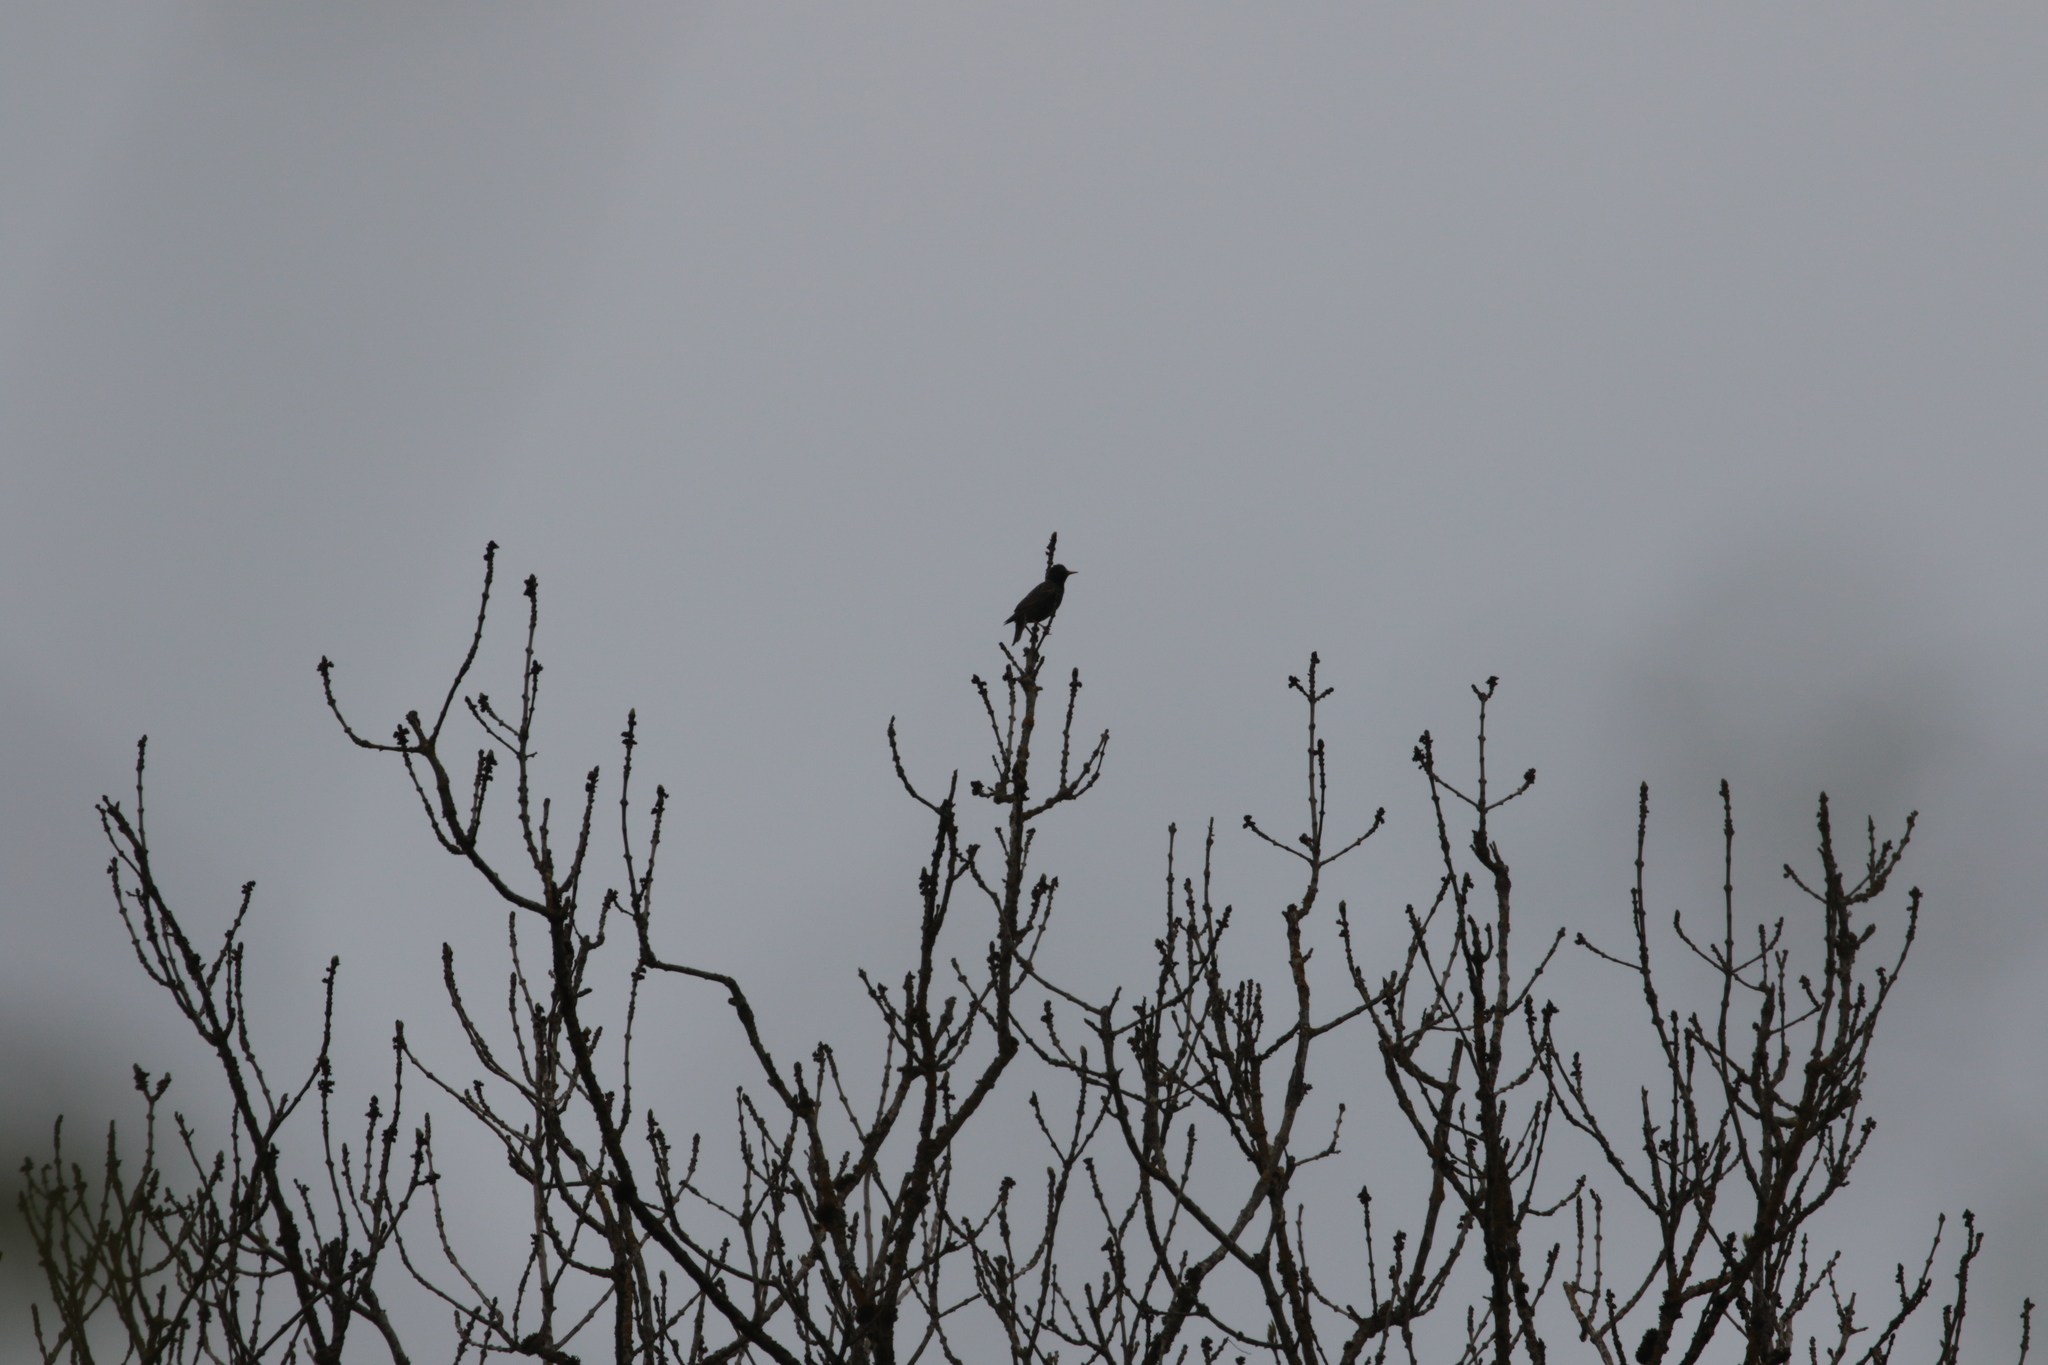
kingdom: Animalia
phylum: Chordata
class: Aves
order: Passeriformes
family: Sturnidae
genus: Sturnus
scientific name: Sturnus vulgaris
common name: Common starling
